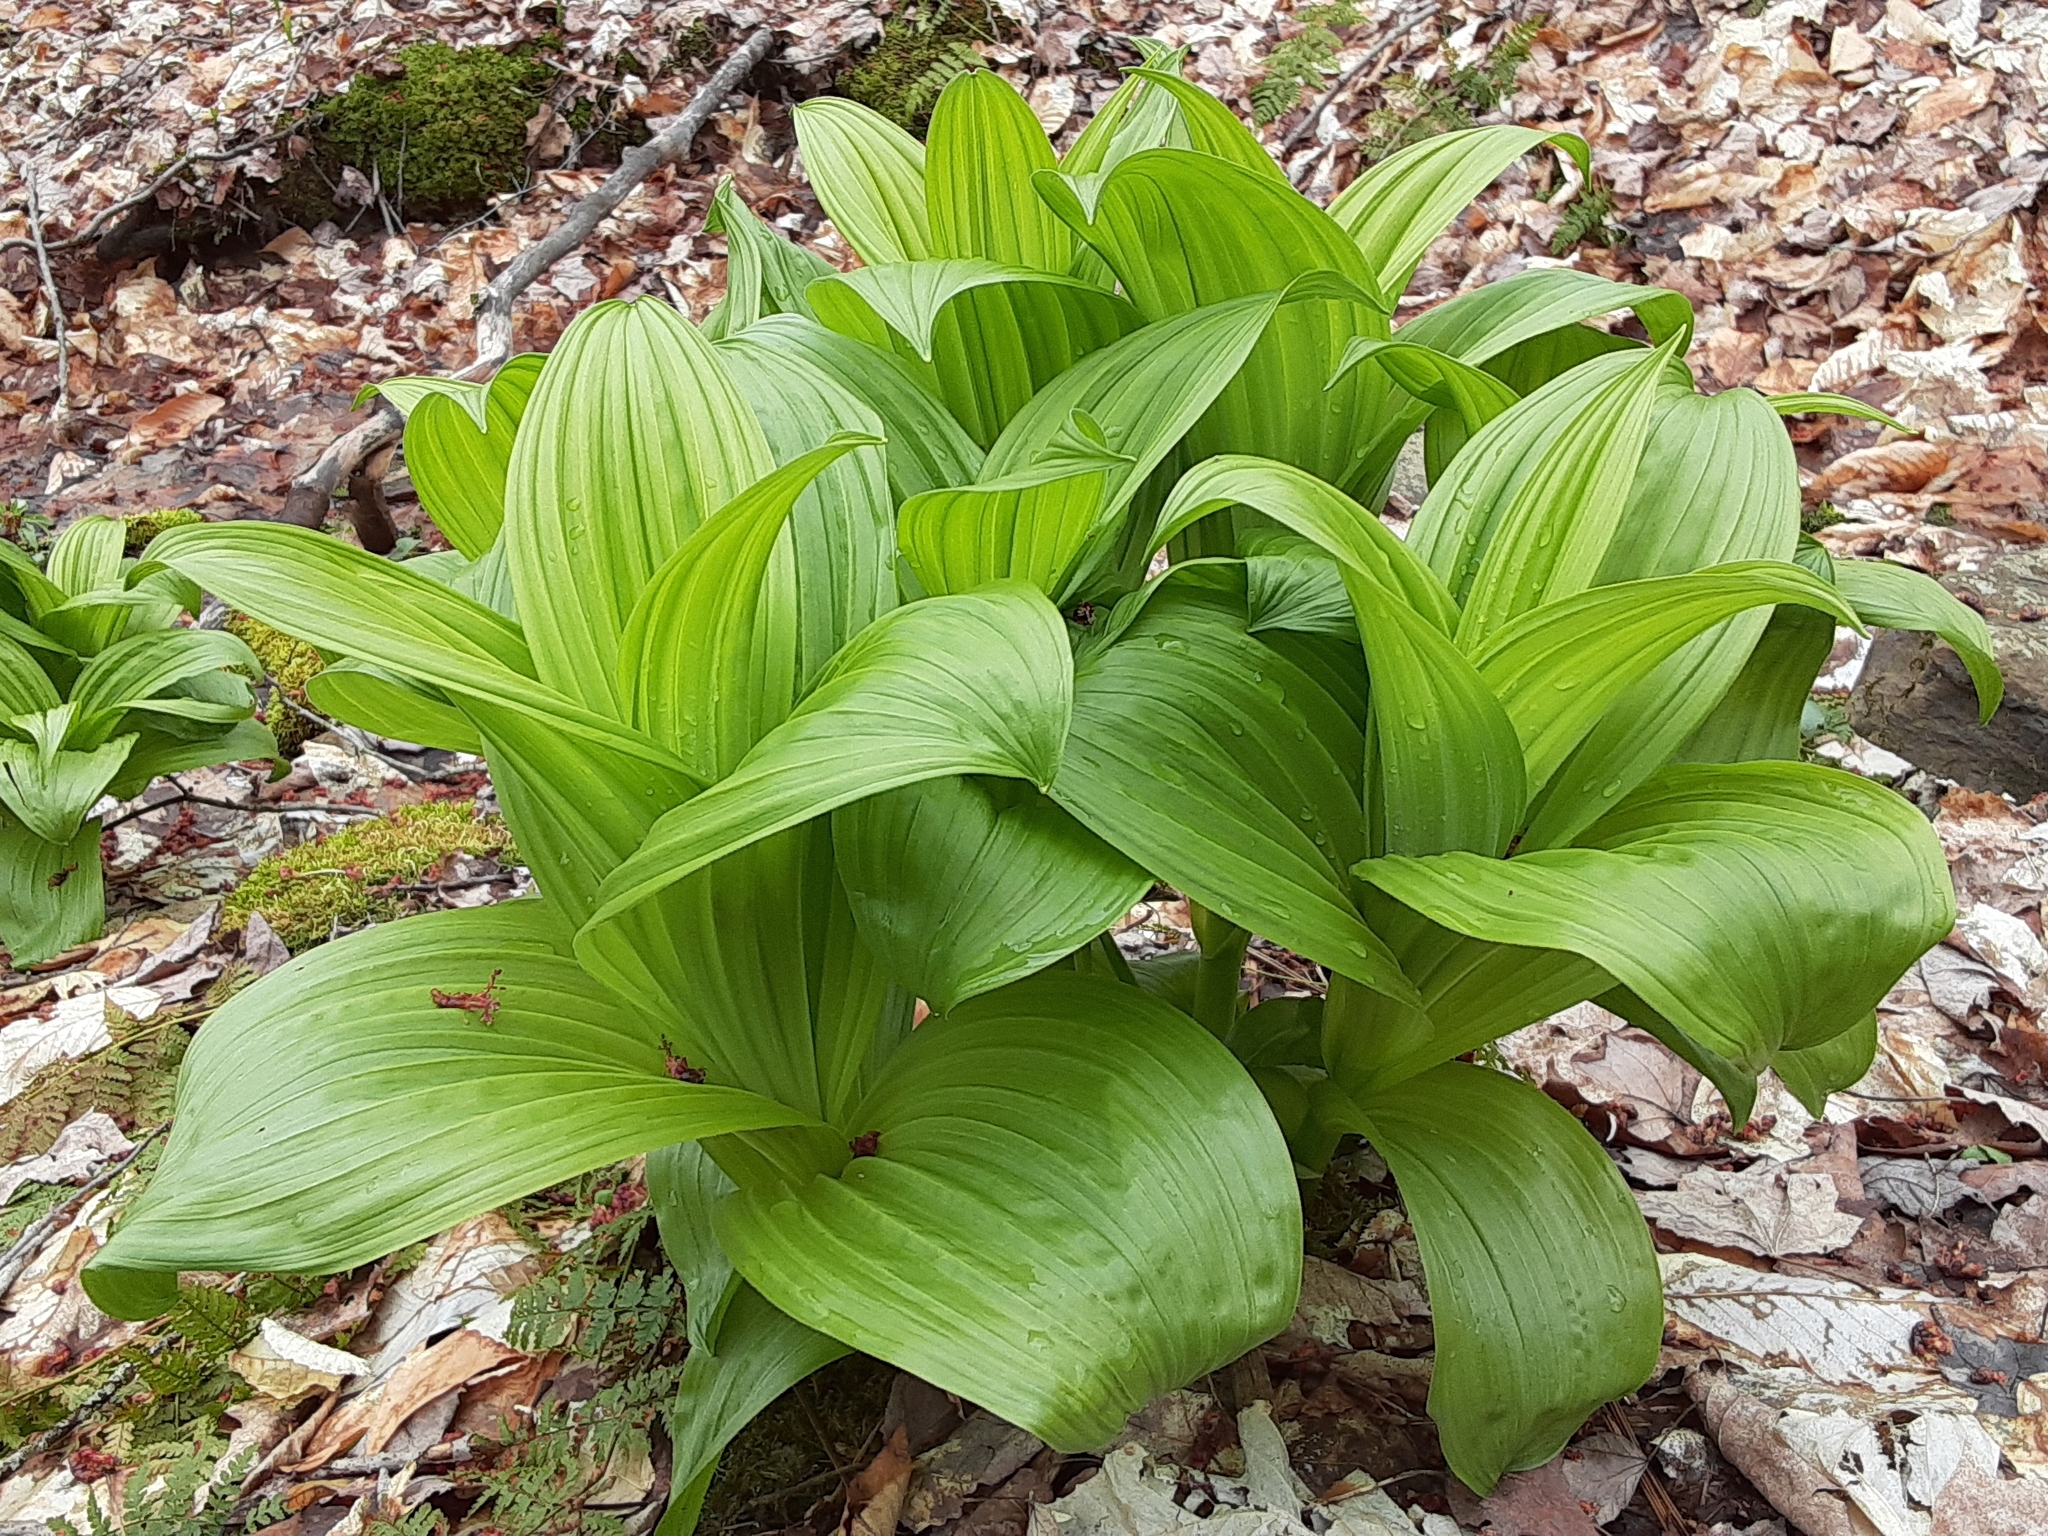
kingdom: Plantae
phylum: Tracheophyta
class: Liliopsida
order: Liliales
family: Melanthiaceae
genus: Veratrum
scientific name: Veratrum viride
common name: American false hellebore
